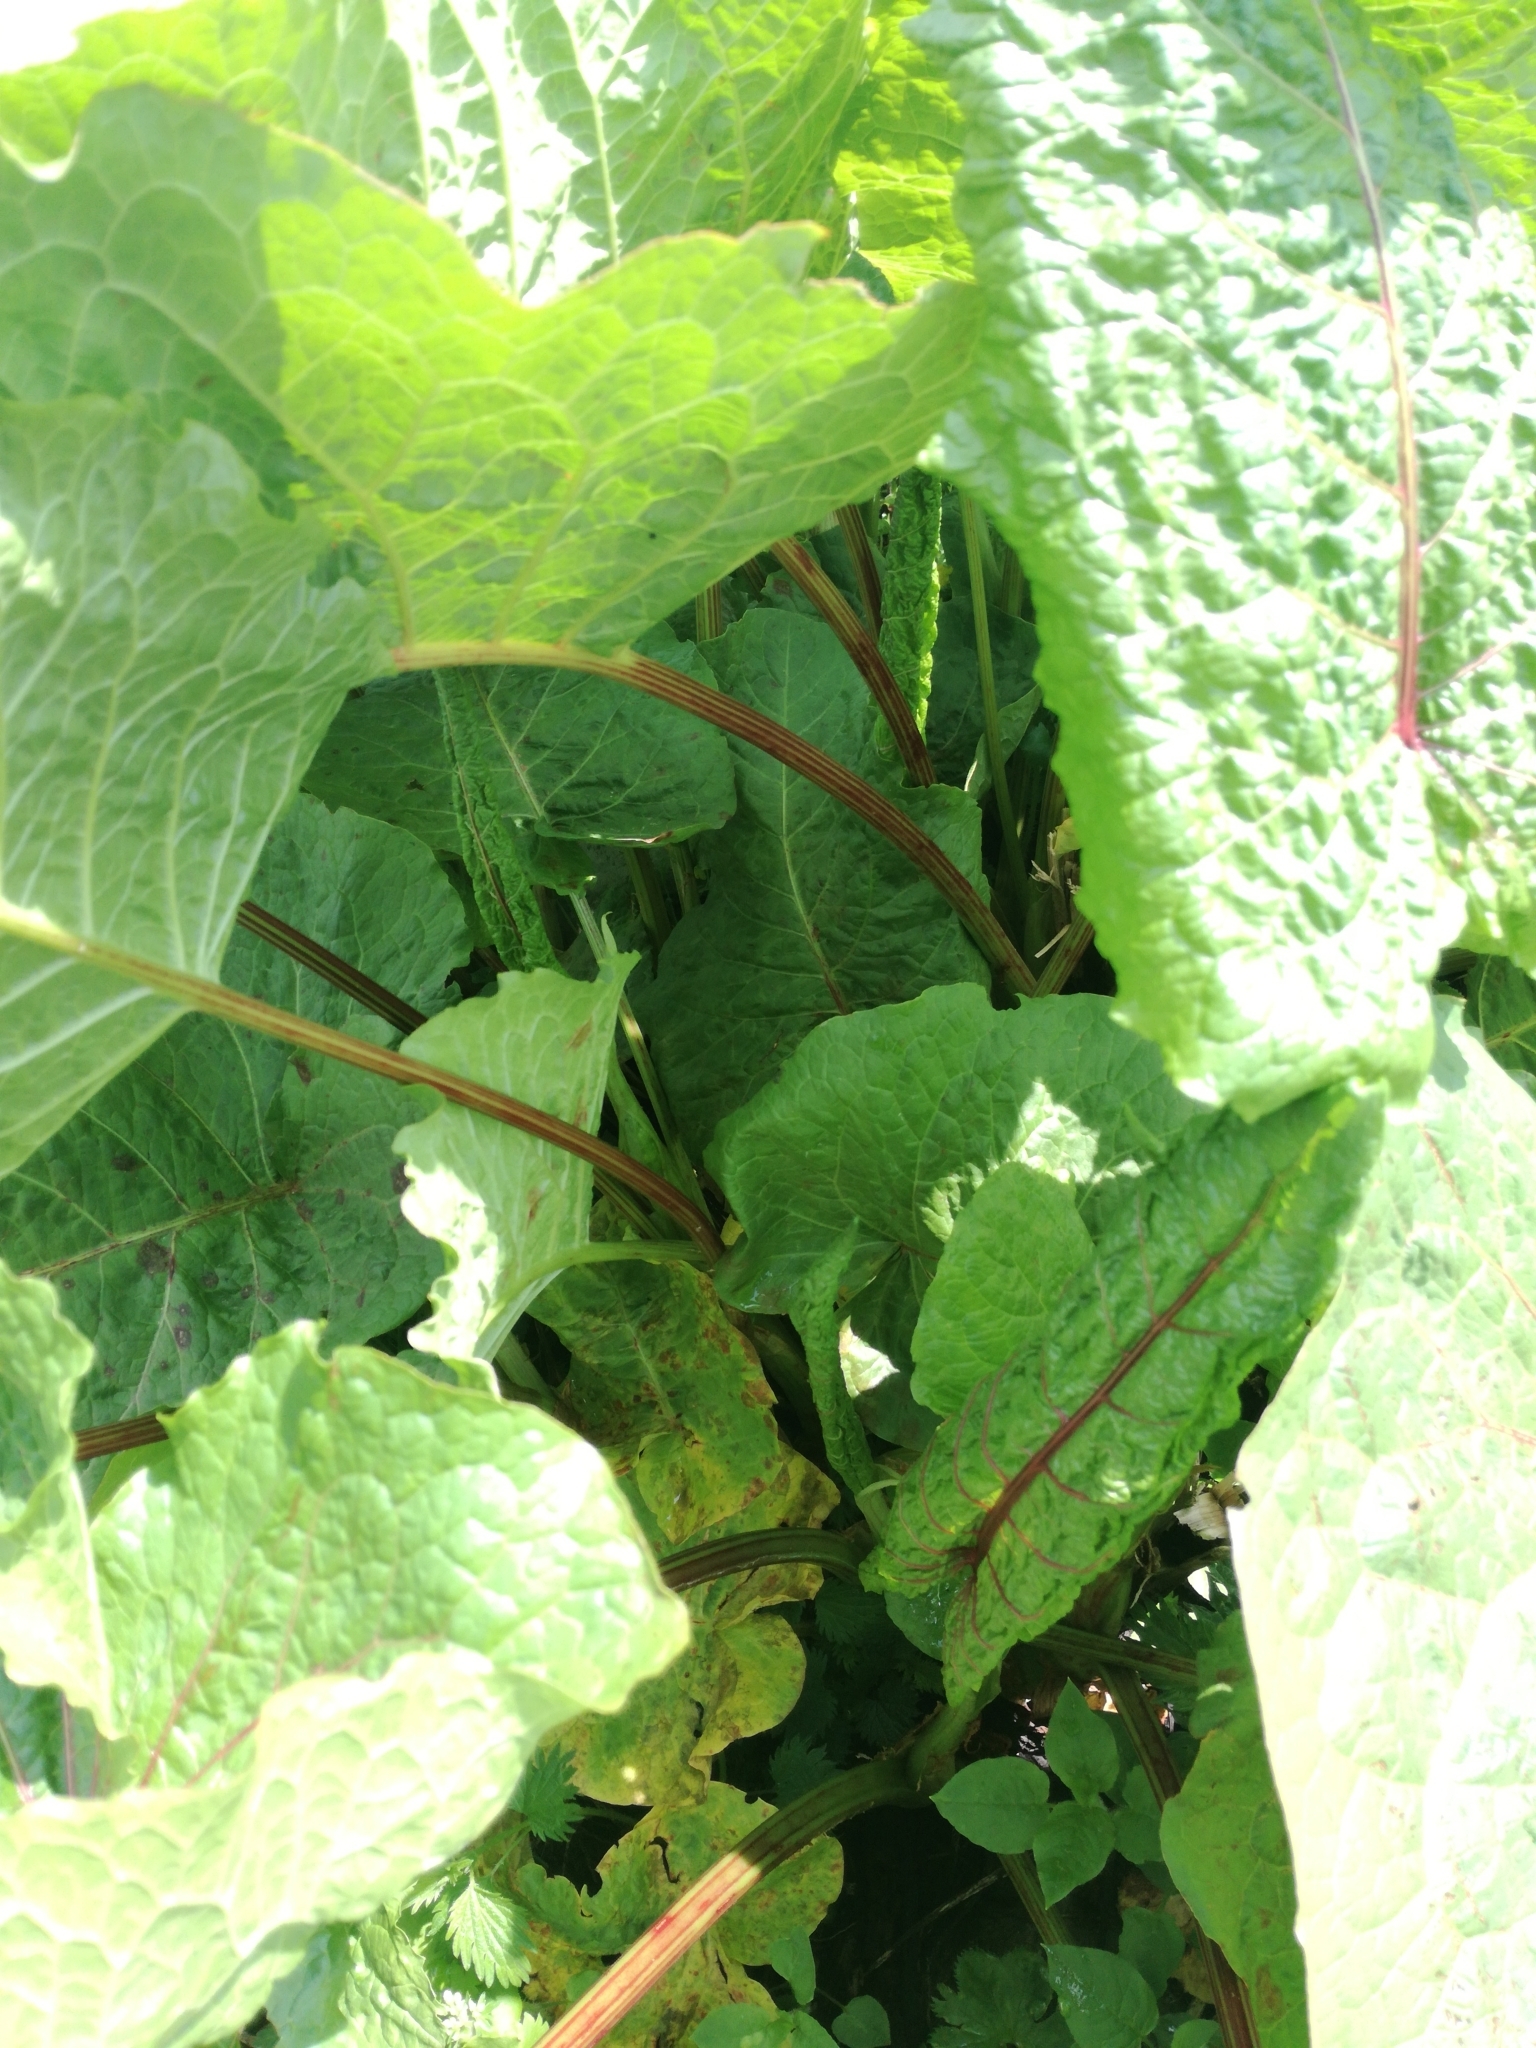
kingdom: Plantae
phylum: Tracheophyta
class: Magnoliopsida
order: Caryophyllales
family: Polygonaceae
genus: Rumex
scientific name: Rumex alpinus
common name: Alpine dock
